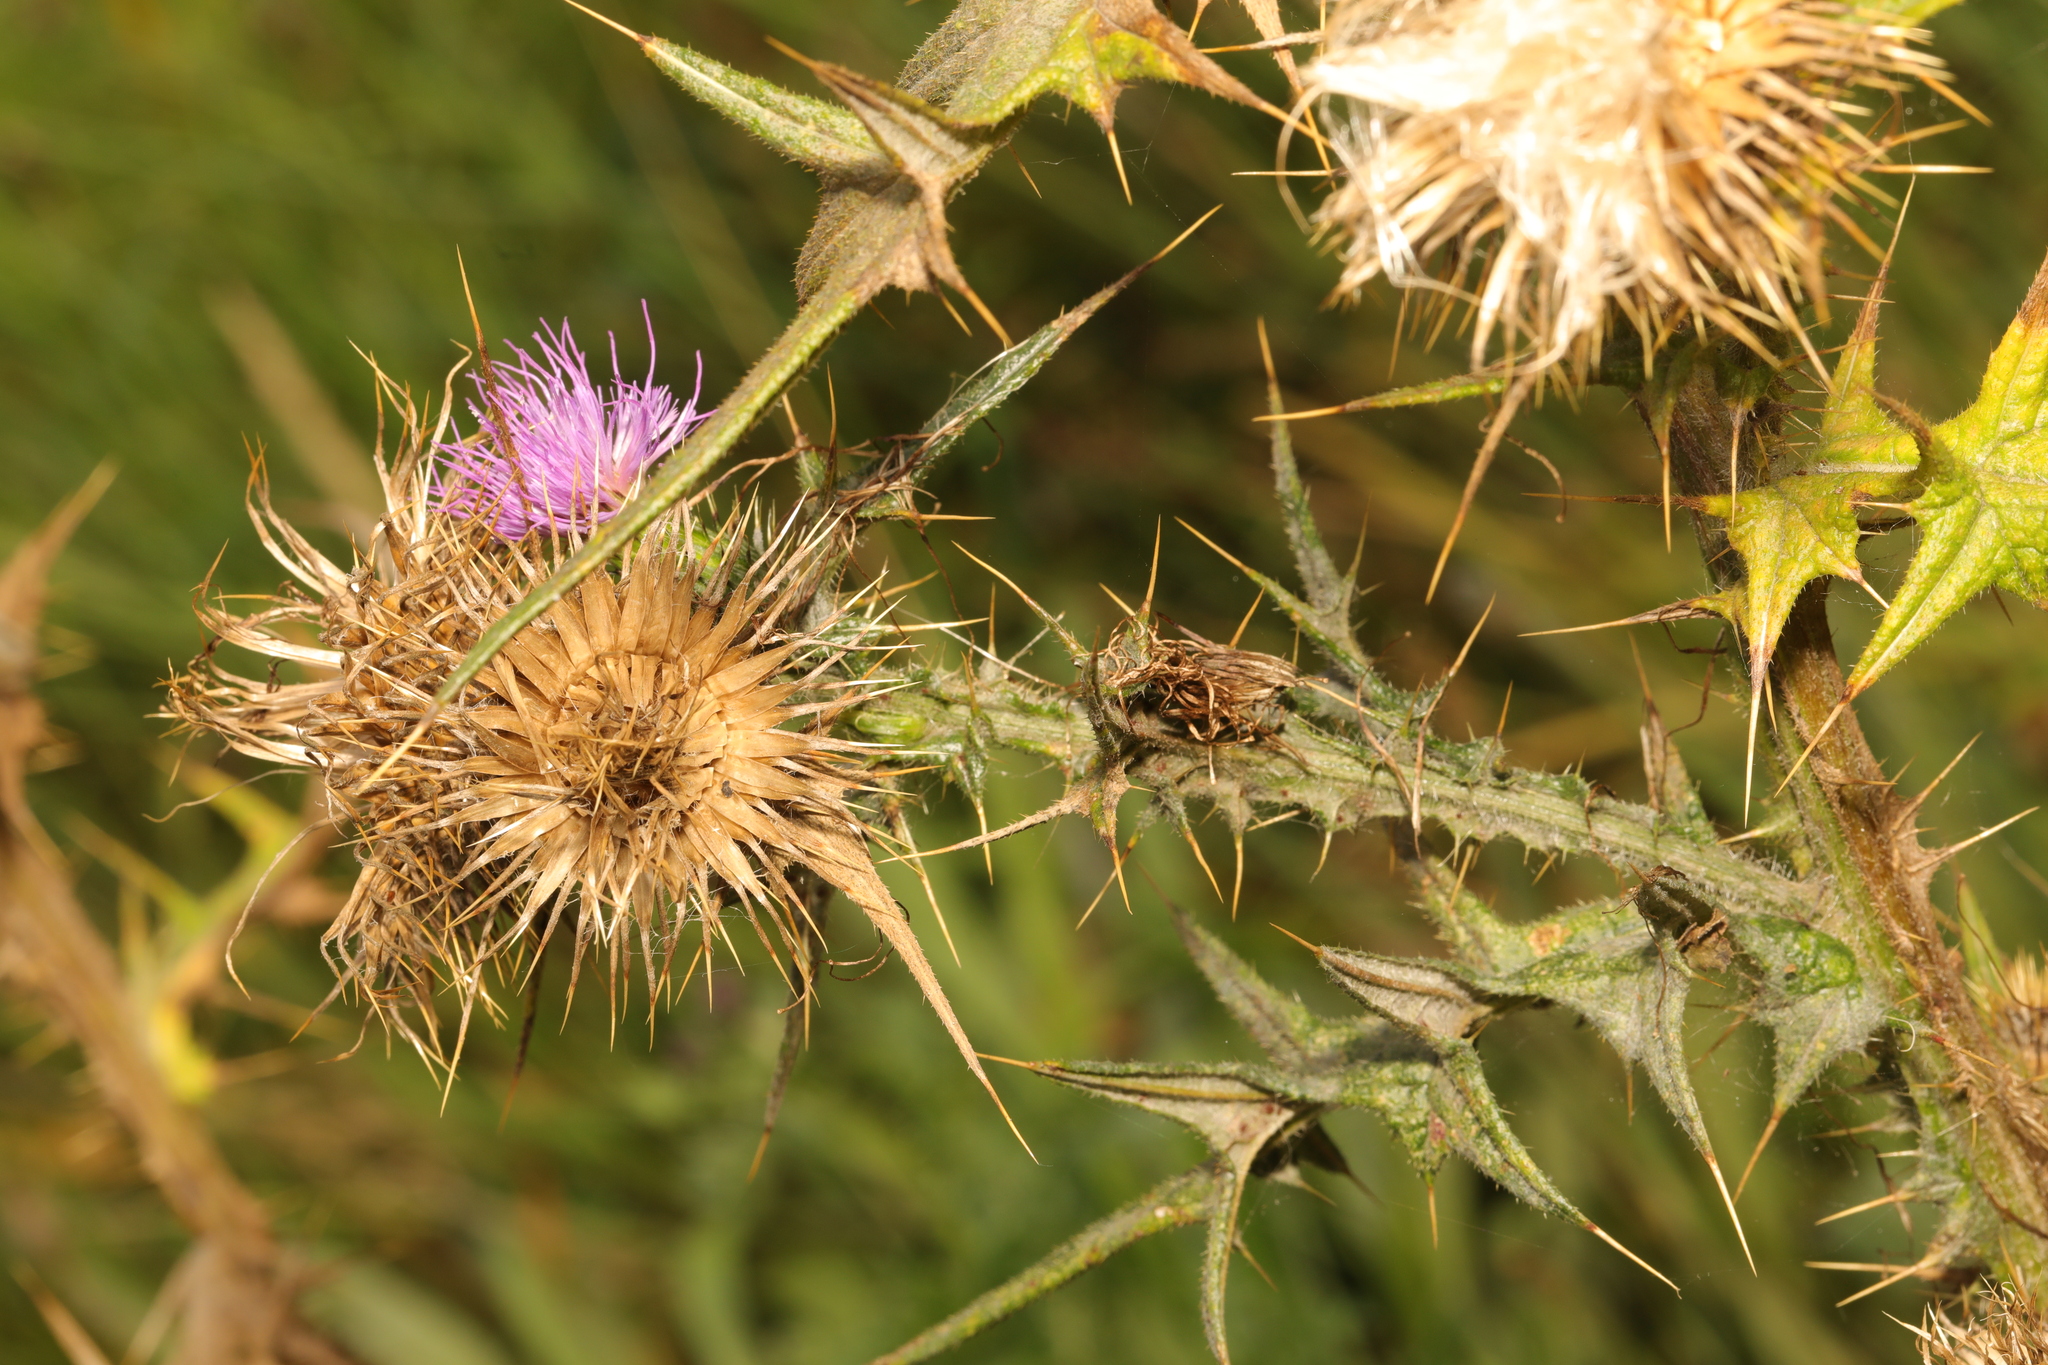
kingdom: Plantae
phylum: Tracheophyta
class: Magnoliopsida
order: Asterales
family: Asteraceae
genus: Cirsium
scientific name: Cirsium vulgare
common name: Bull thistle
